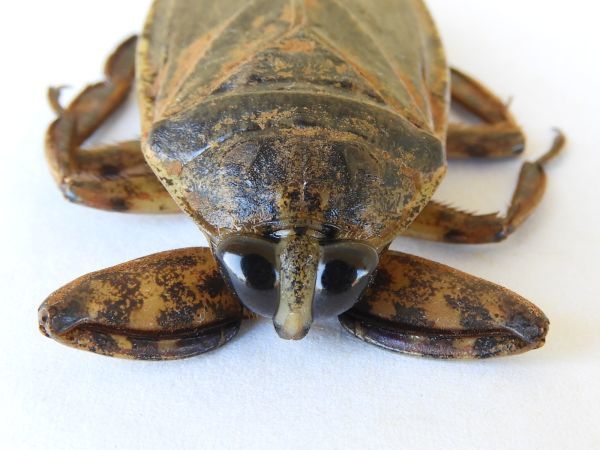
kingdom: Animalia
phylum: Arthropoda
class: Insecta
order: Hemiptera
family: Belostomatidae
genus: Lethocerus
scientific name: Lethocerus medius
